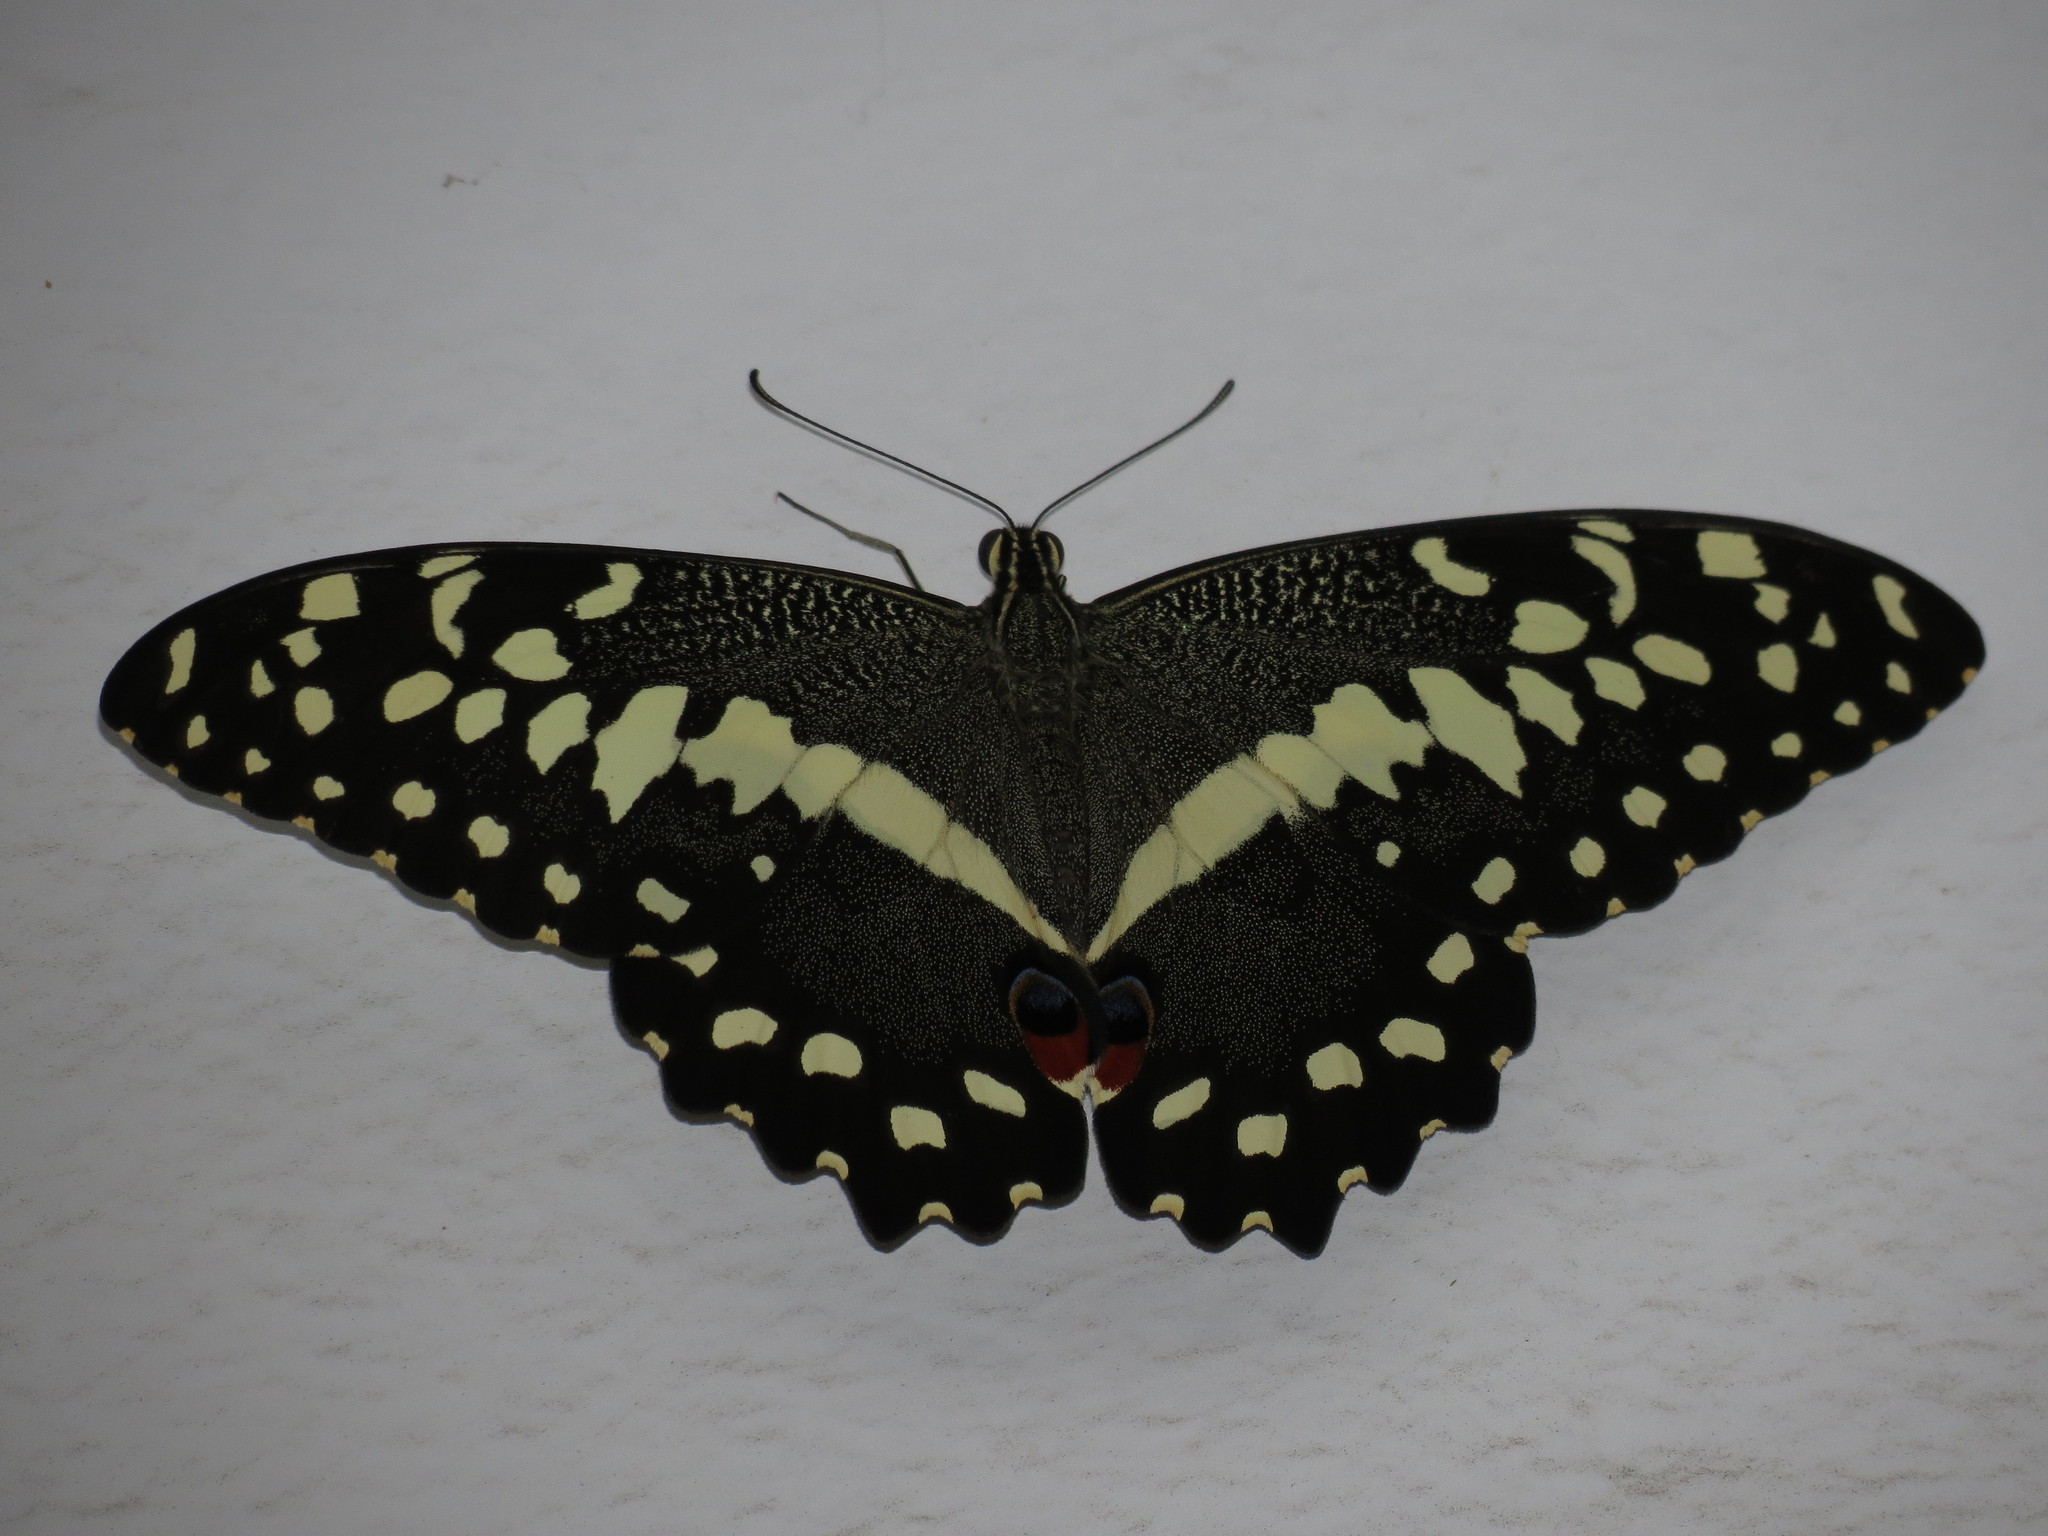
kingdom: Animalia
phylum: Arthropoda
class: Insecta
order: Lepidoptera
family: Papilionidae
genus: Papilio
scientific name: Papilio demodocus
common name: Christmas butterfly
